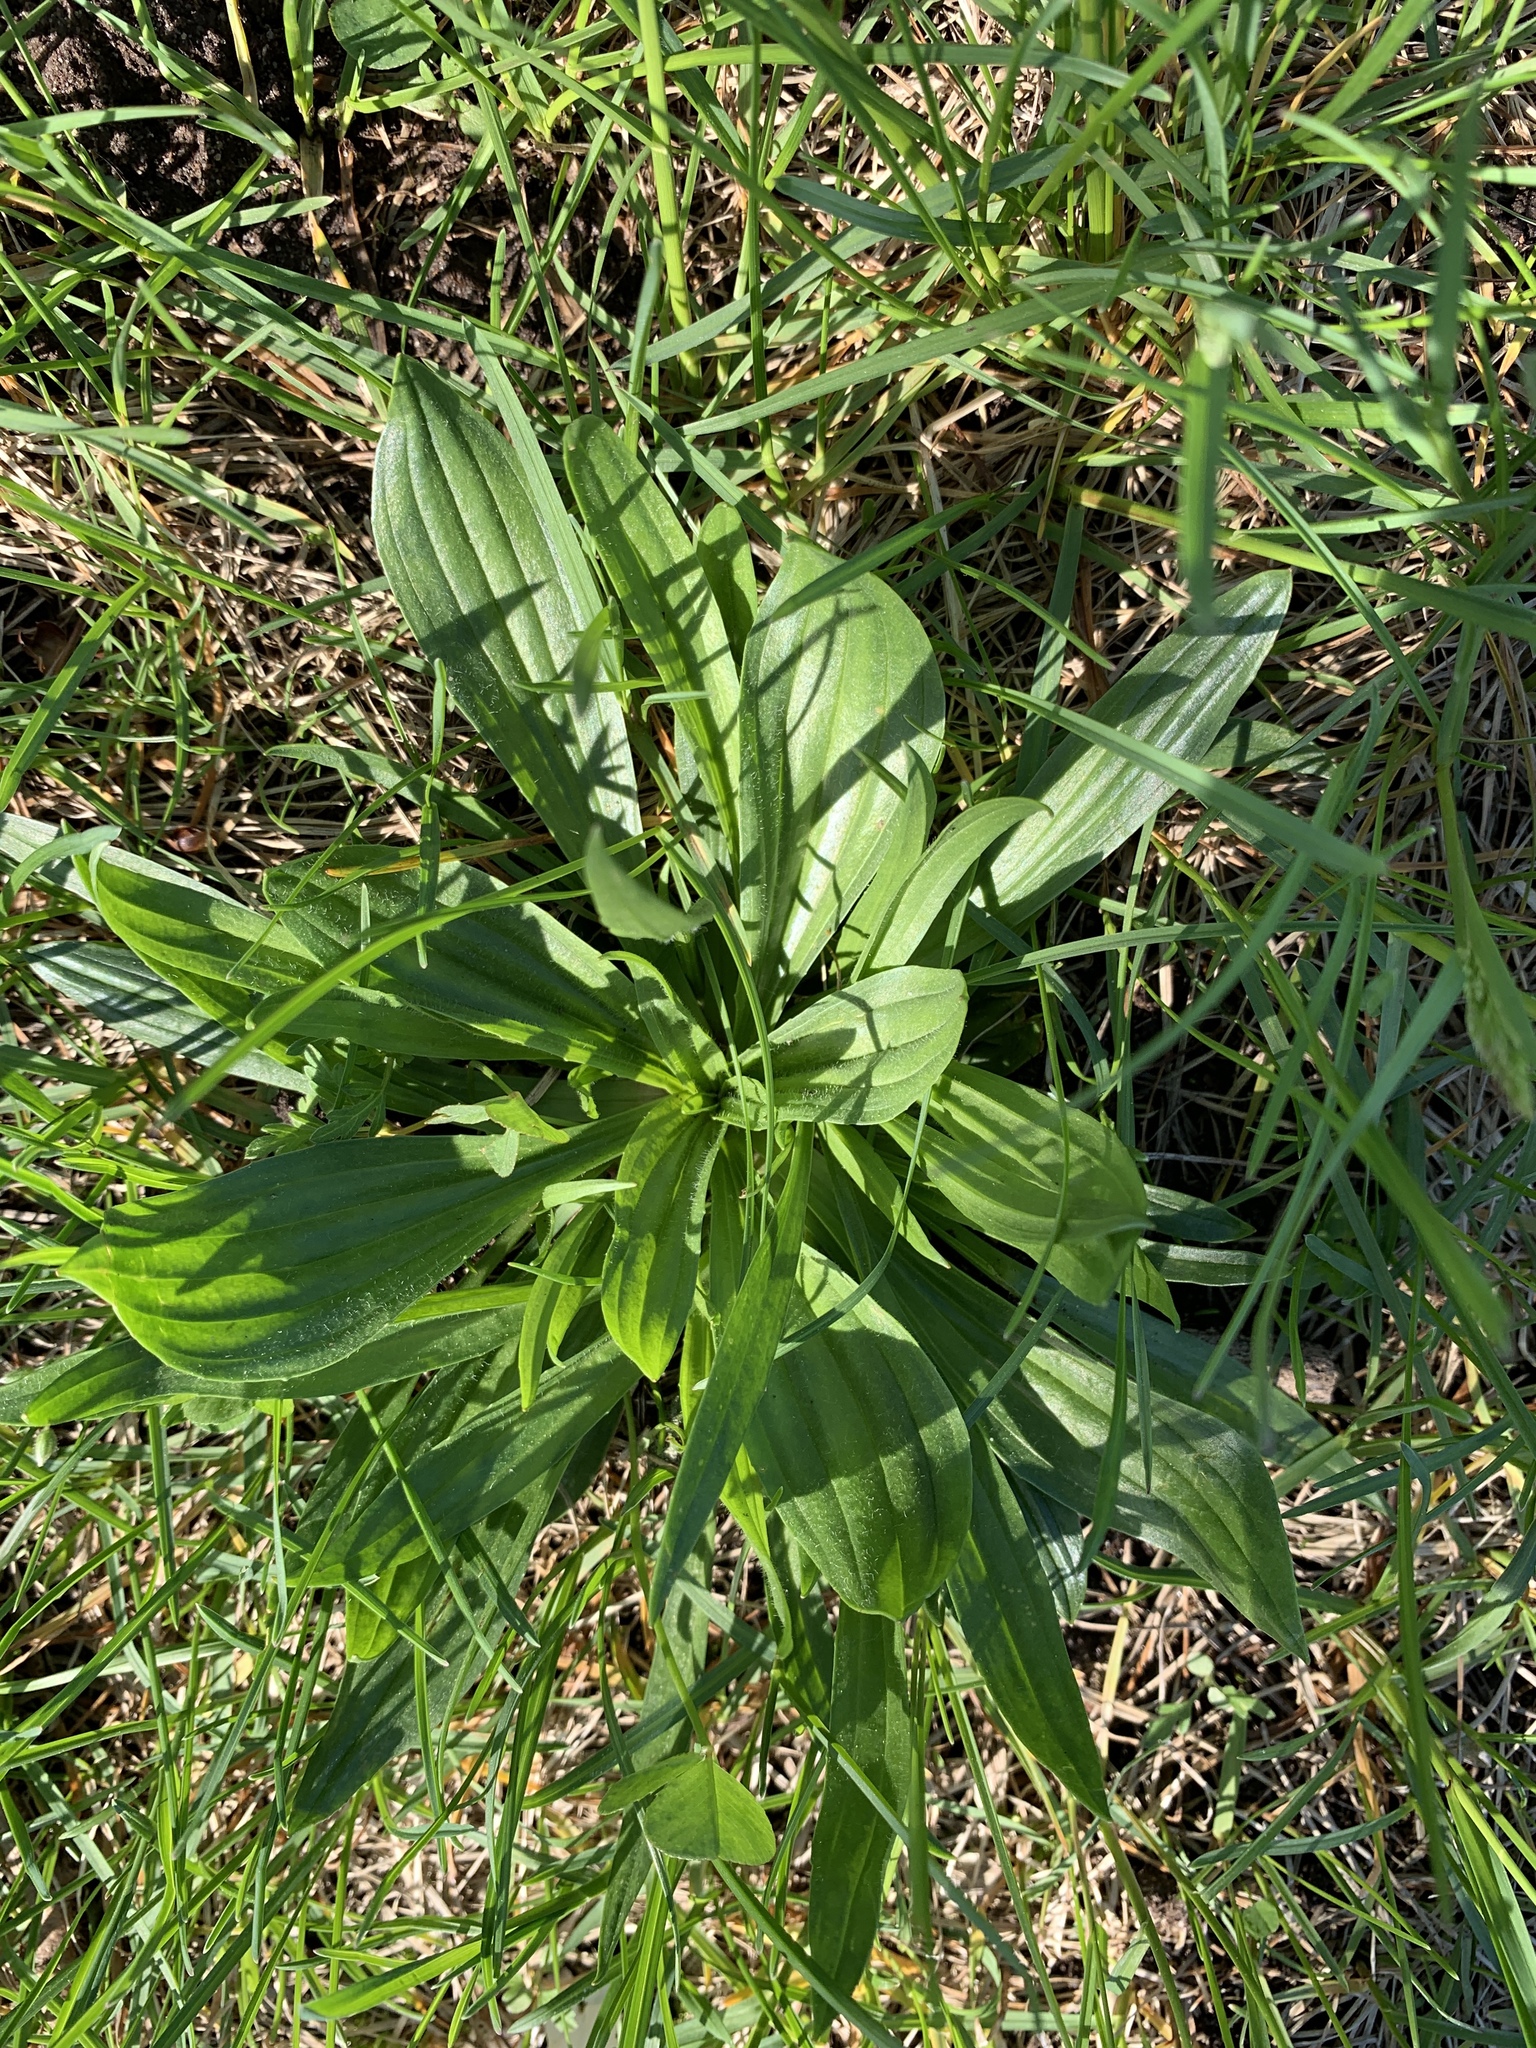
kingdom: Plantae
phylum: Tracheophyta
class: Magnoliopsida
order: Lamiales
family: Plantaginaceae
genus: Plantago
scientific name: Plantago lanceolata
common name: Ribwort plantain
